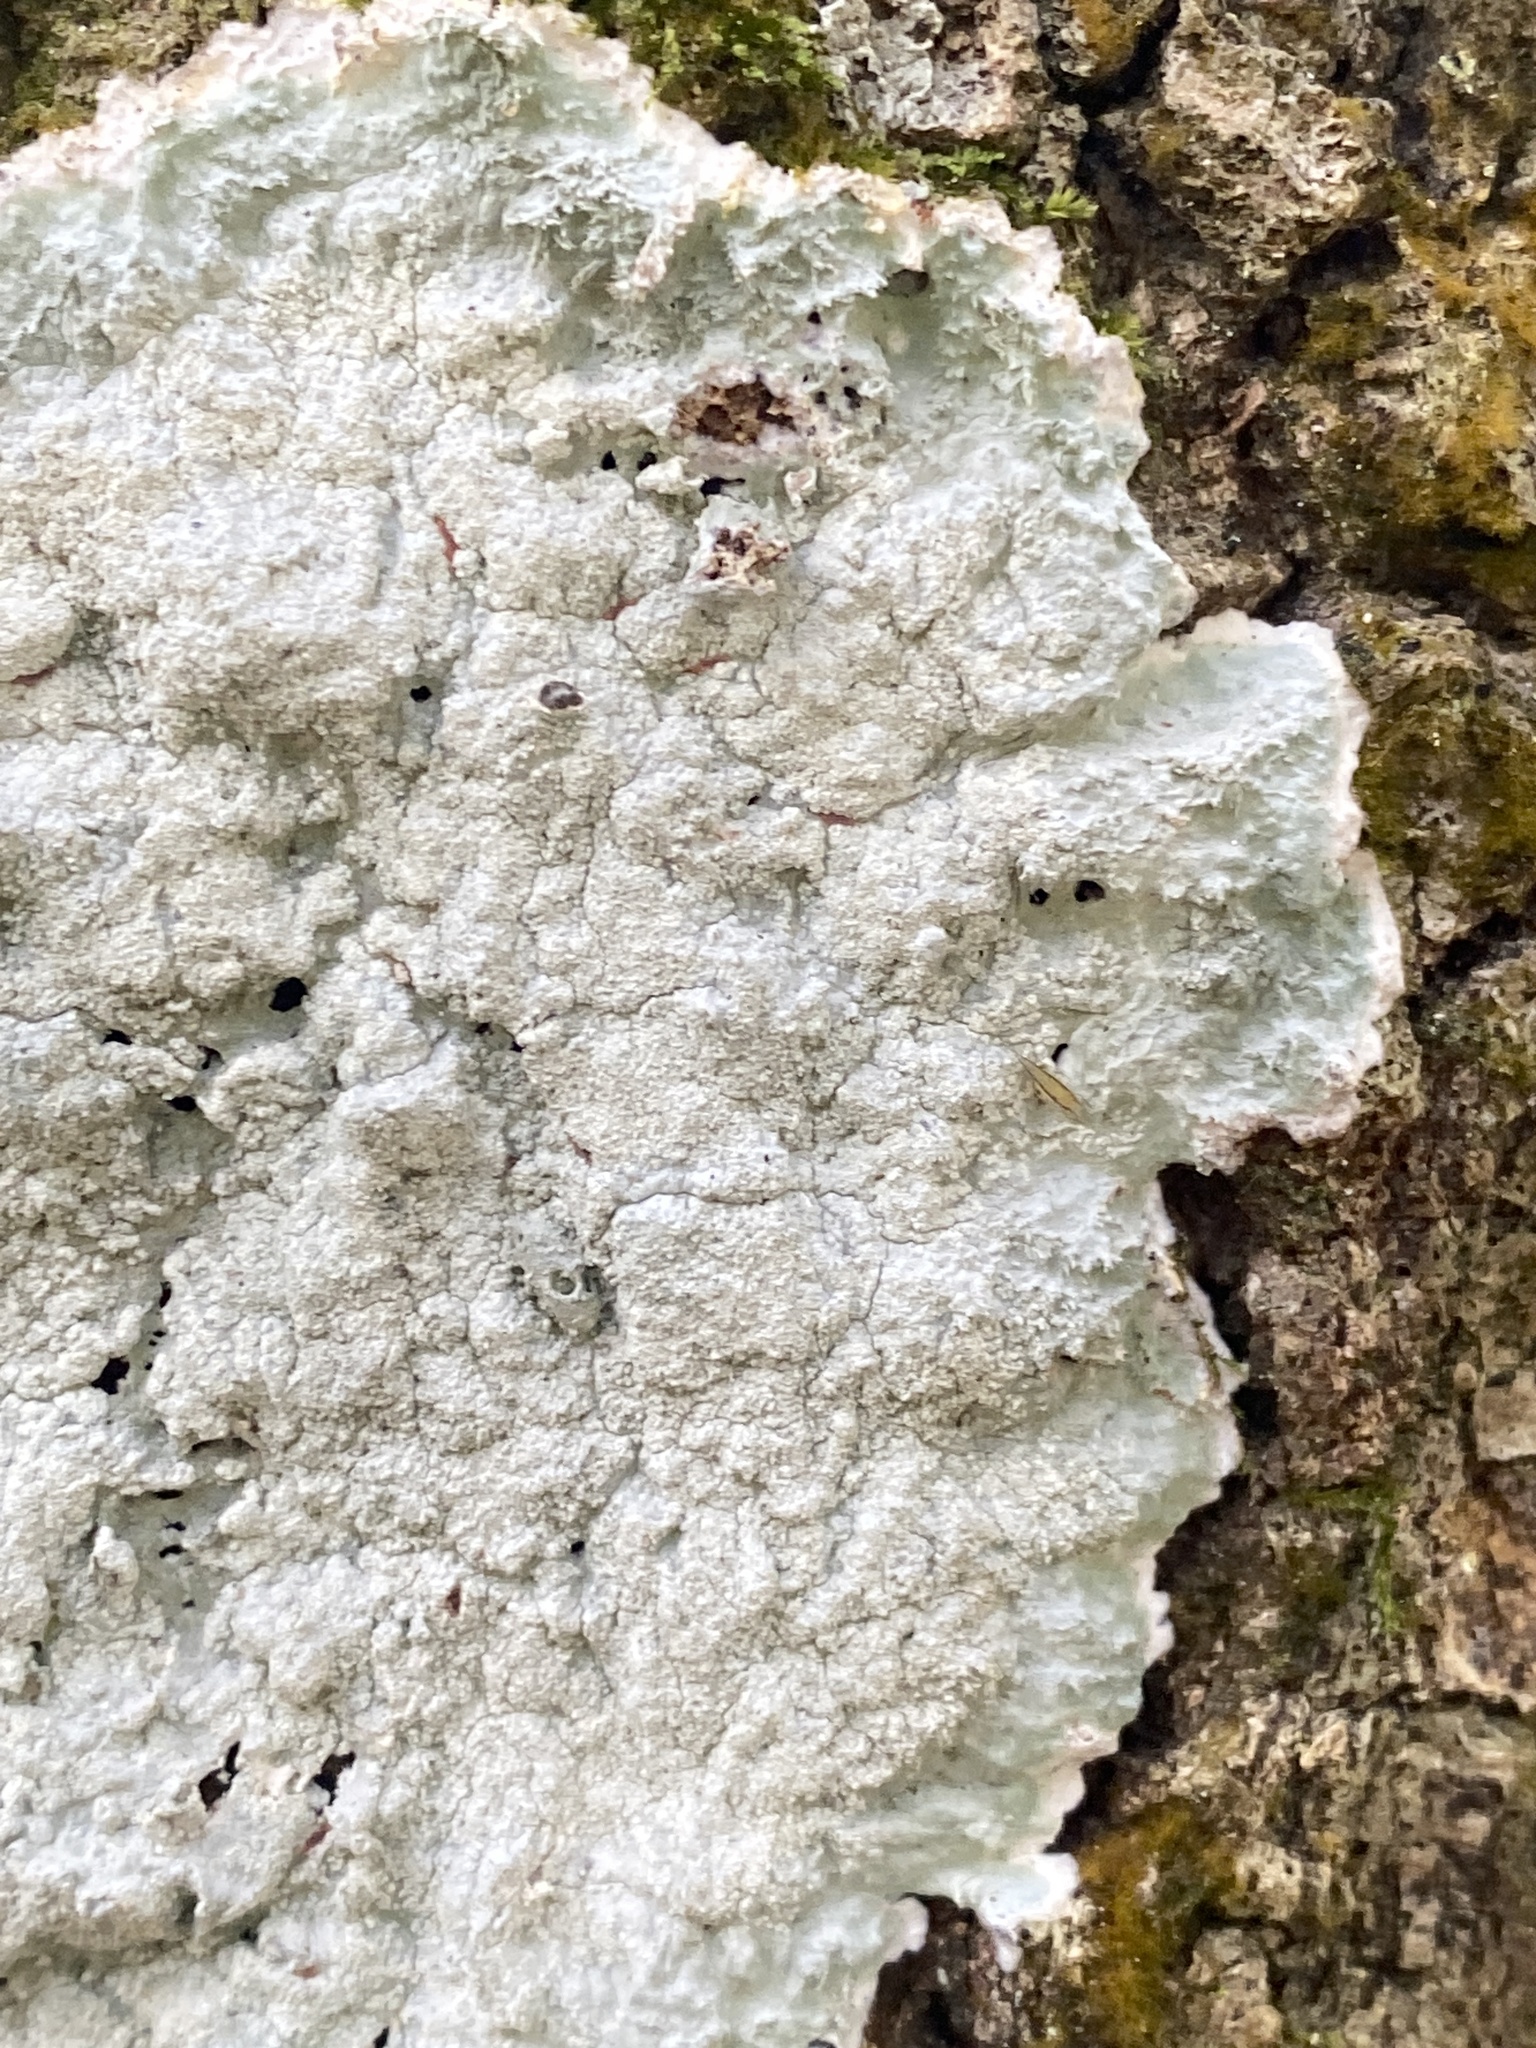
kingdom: Fungi
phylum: Ascomycota
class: Arthoniomycetes
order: Arthoniales
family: Arthoniaceae
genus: Cryptothecia
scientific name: Cryptothecia striata
